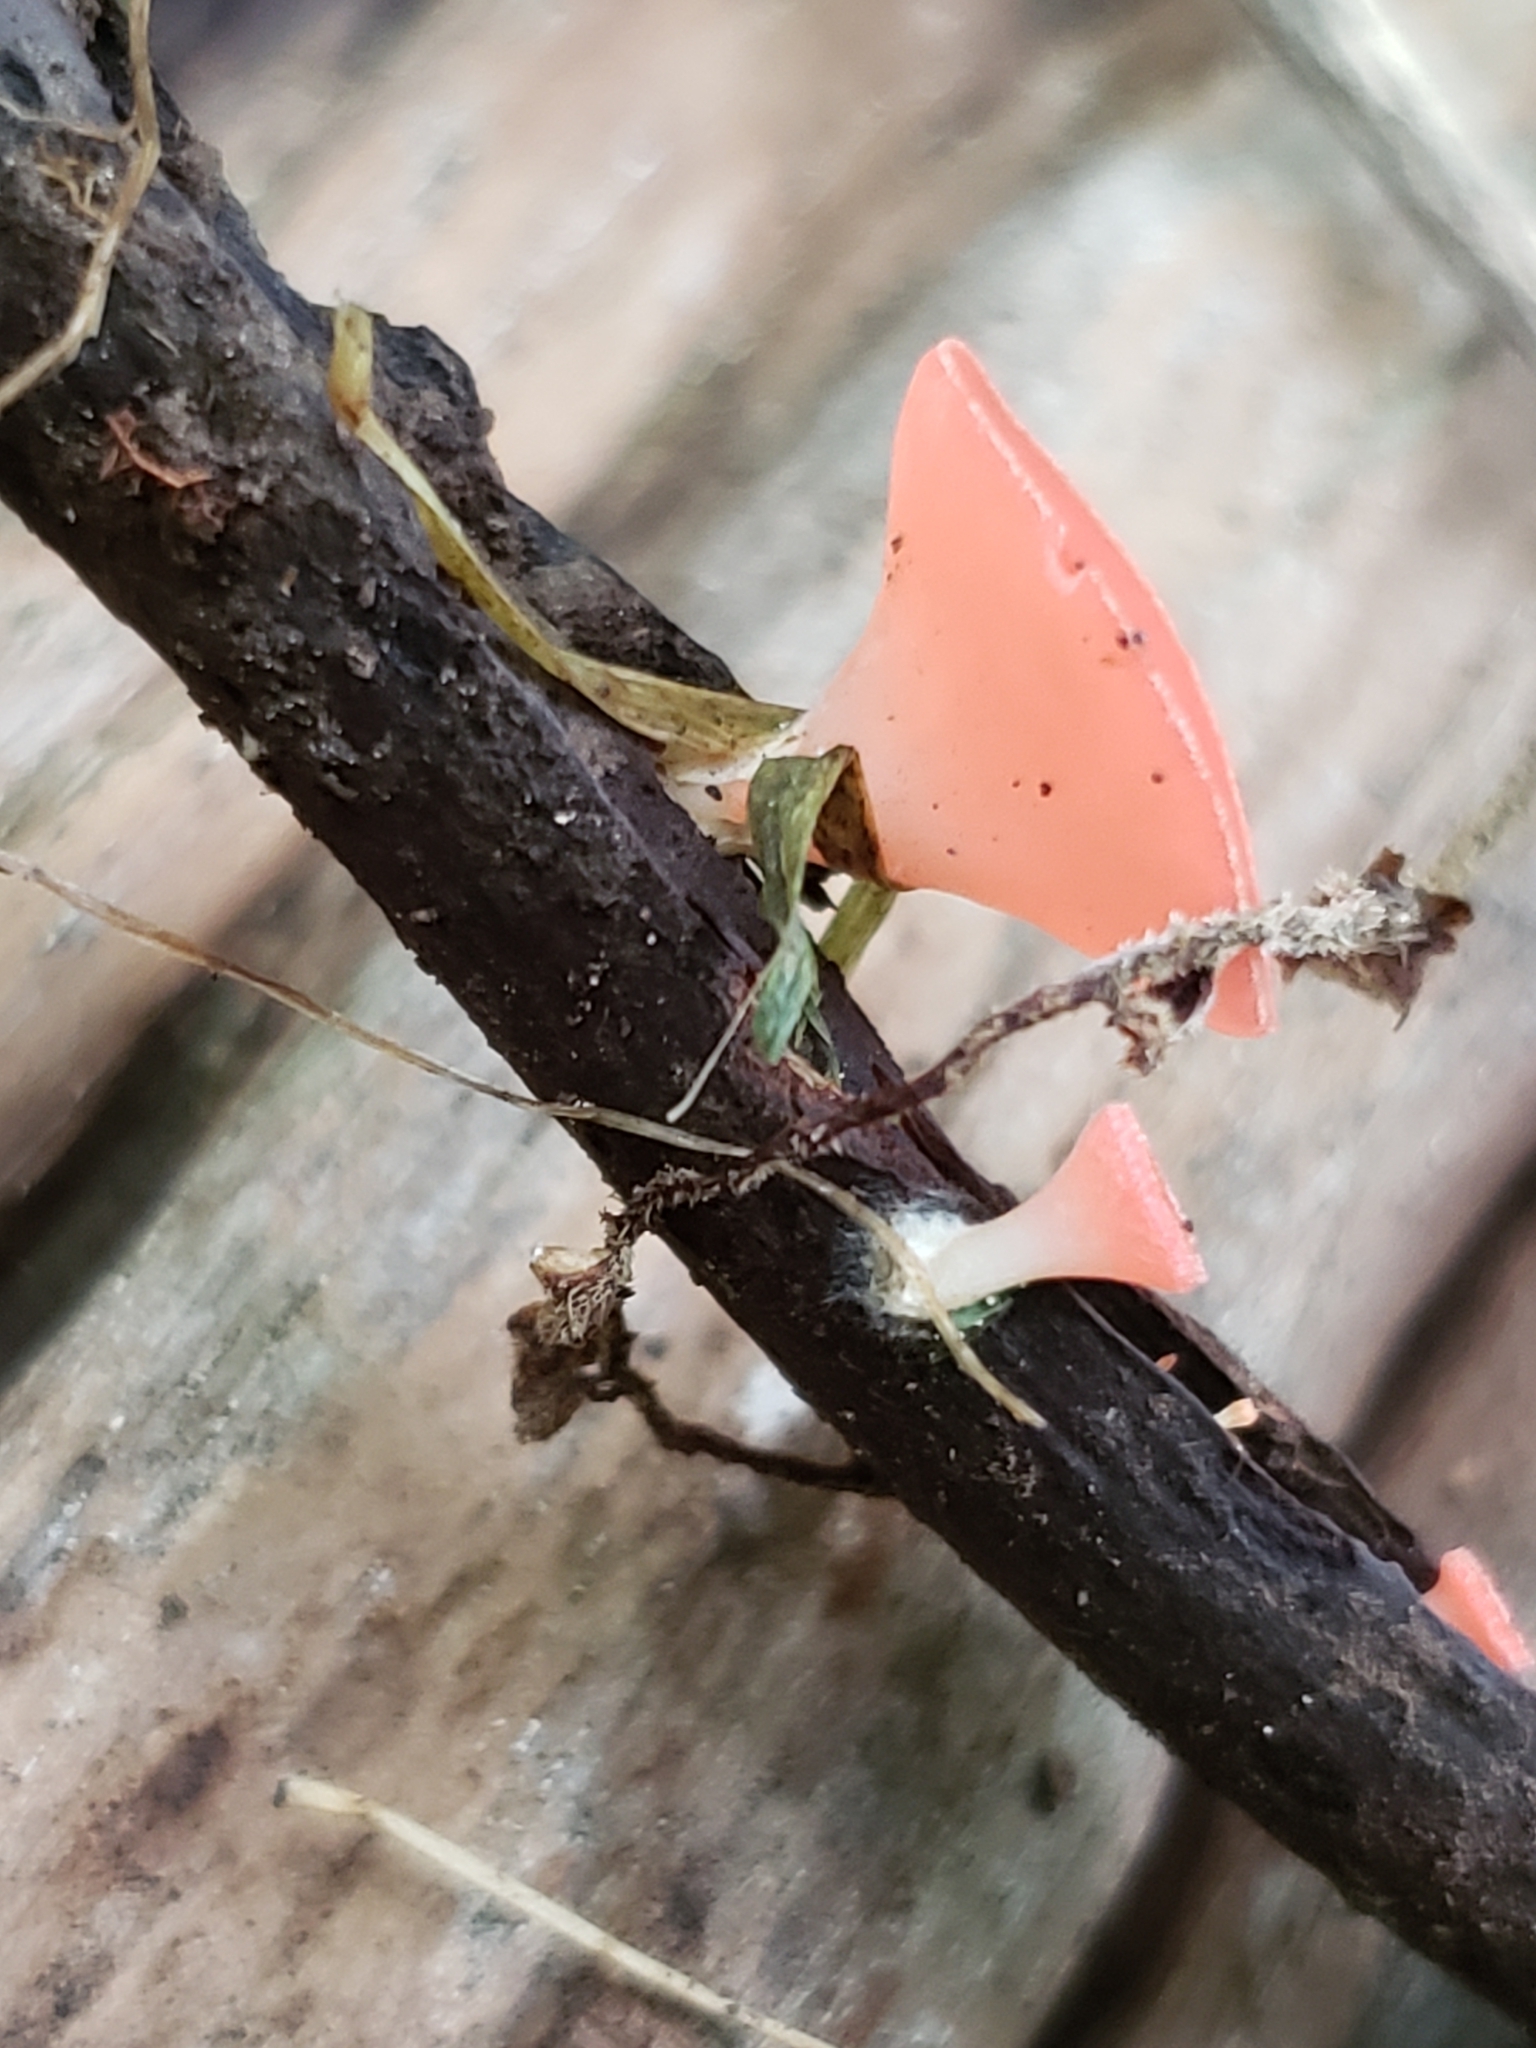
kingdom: Fungi
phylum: Ascomycota
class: Pezizomycetes
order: Pezizales
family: Sarcoscyphaceae
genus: Sarcoscypha
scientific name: Sarcoscypha occidentalis
